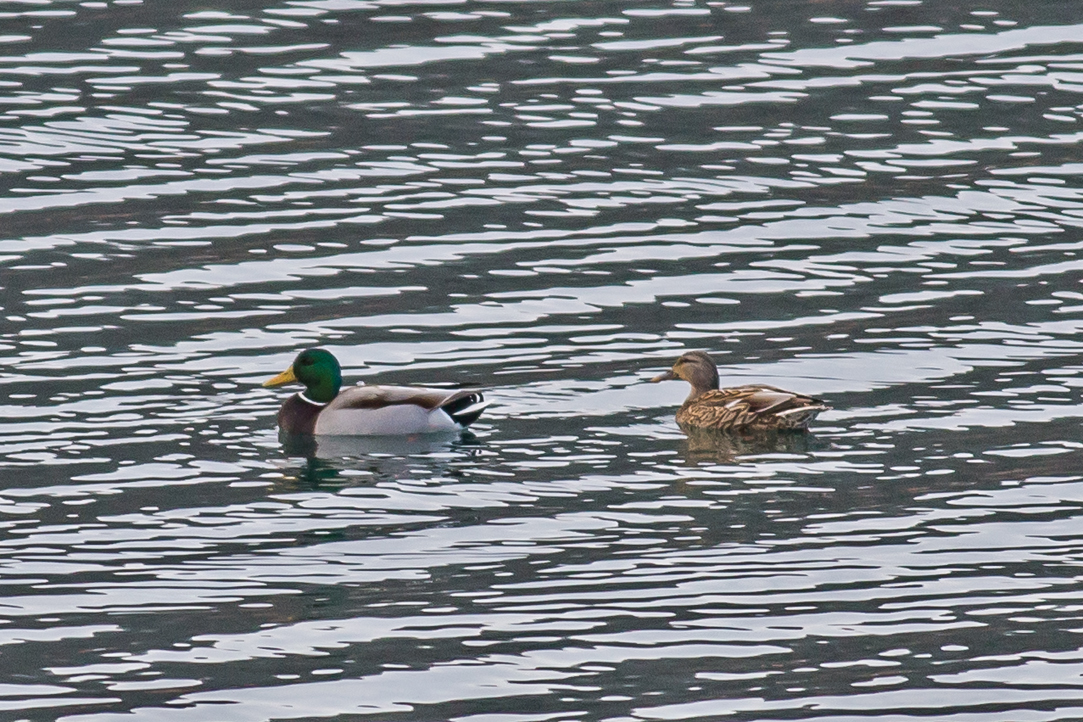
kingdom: Animalia
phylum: Chordata
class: Aves
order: Anseriformes
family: Anatidae
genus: Anas
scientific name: Anas platyrhynchos
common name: Mallard
